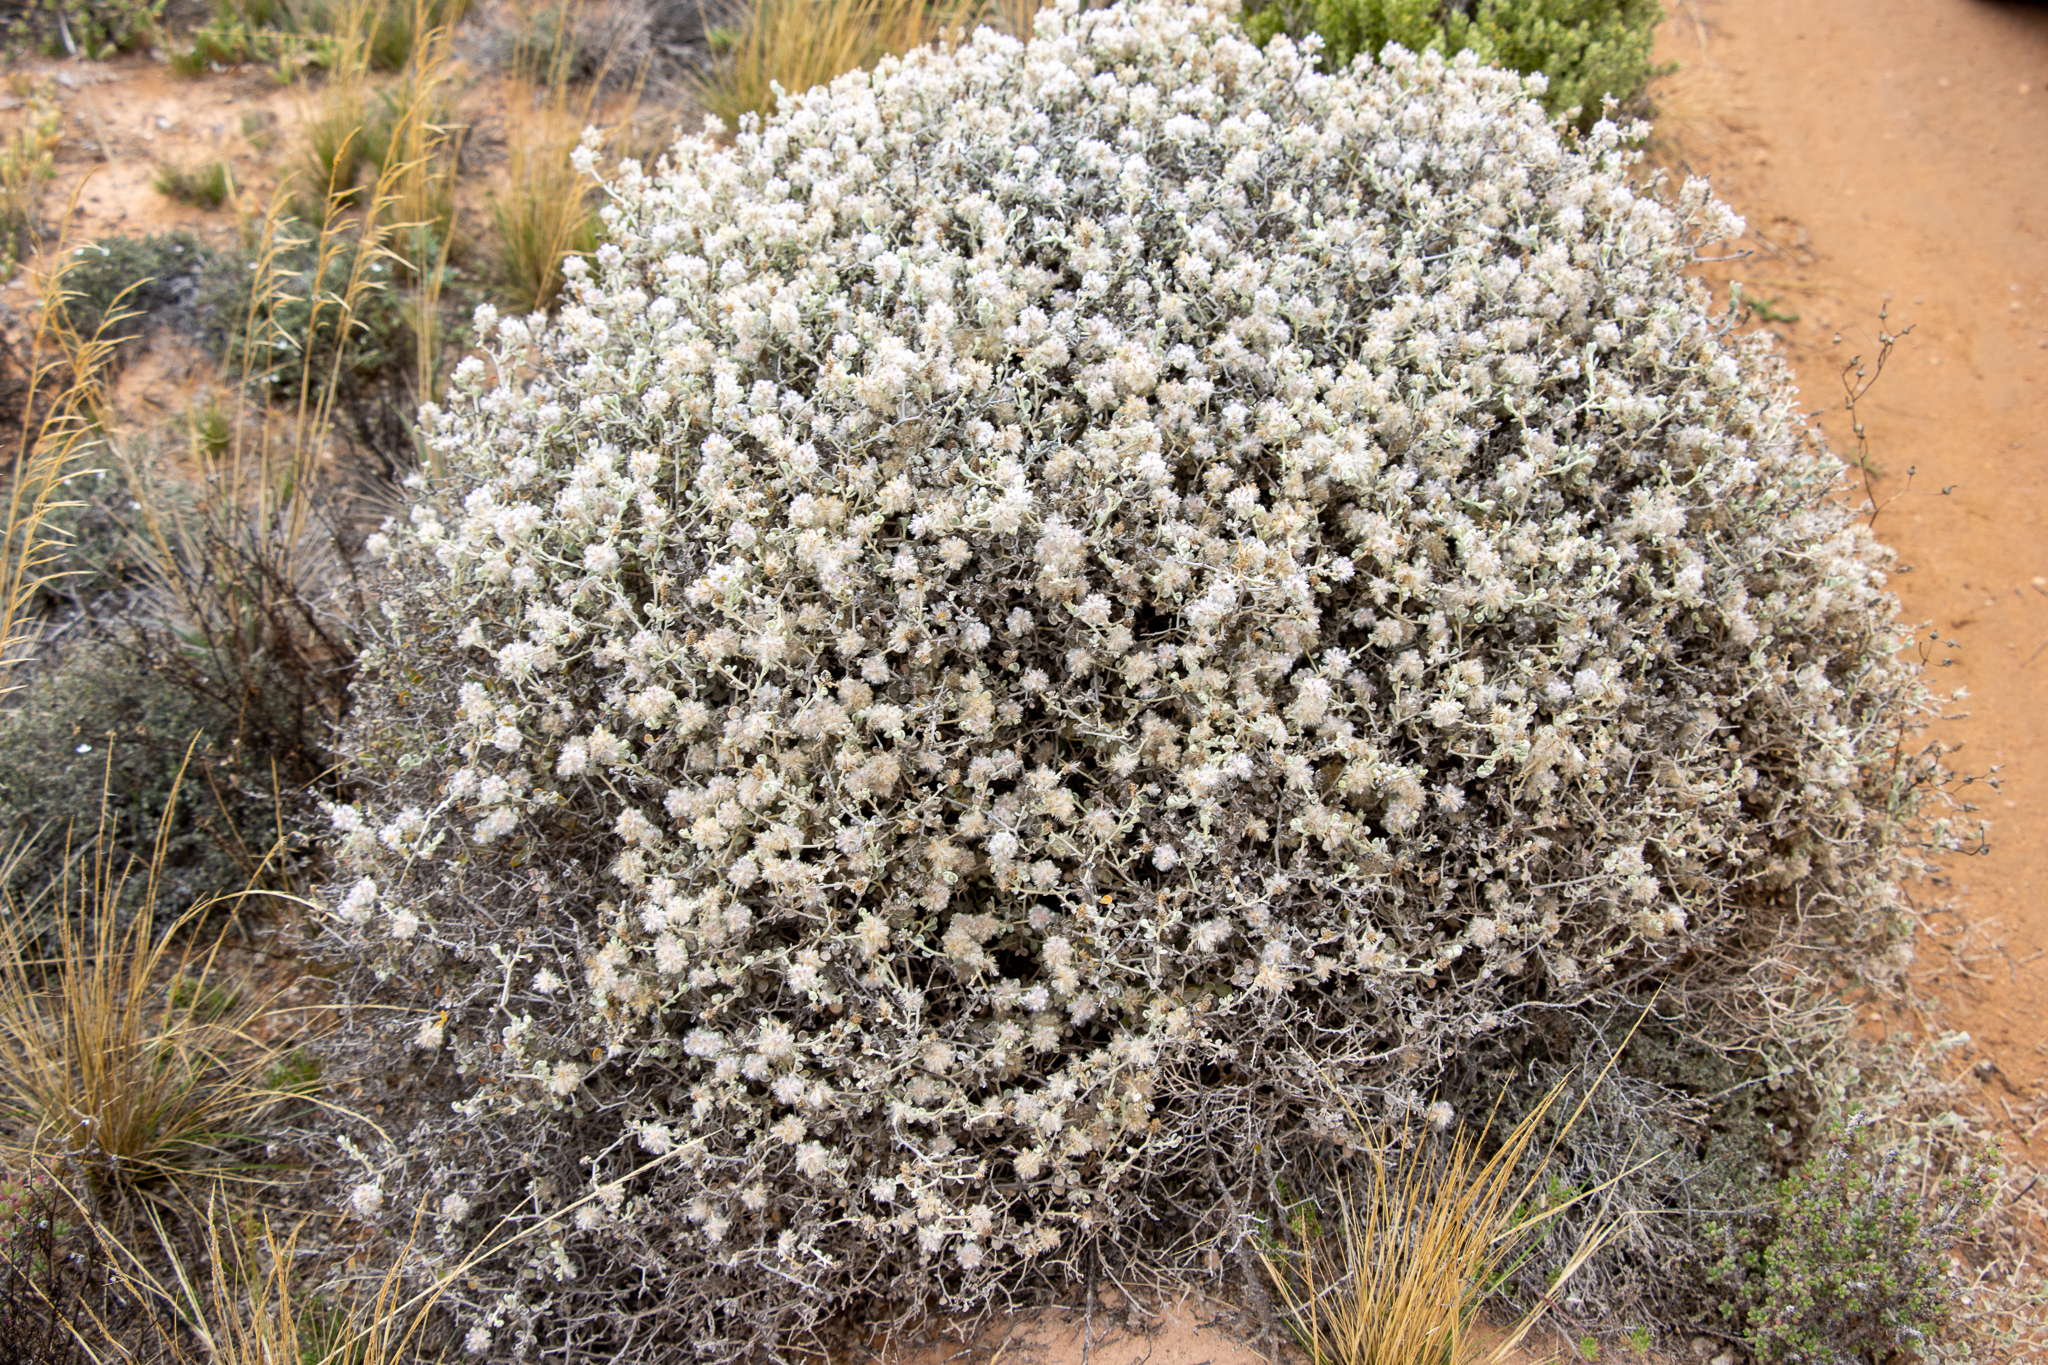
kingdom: Plantae
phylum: Tracheophyta
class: Magnoliopsida
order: Caryophyllales
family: Amaranthaceae
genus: Ptilotus
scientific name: Ptilotus obovatus
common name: Cottonbush
